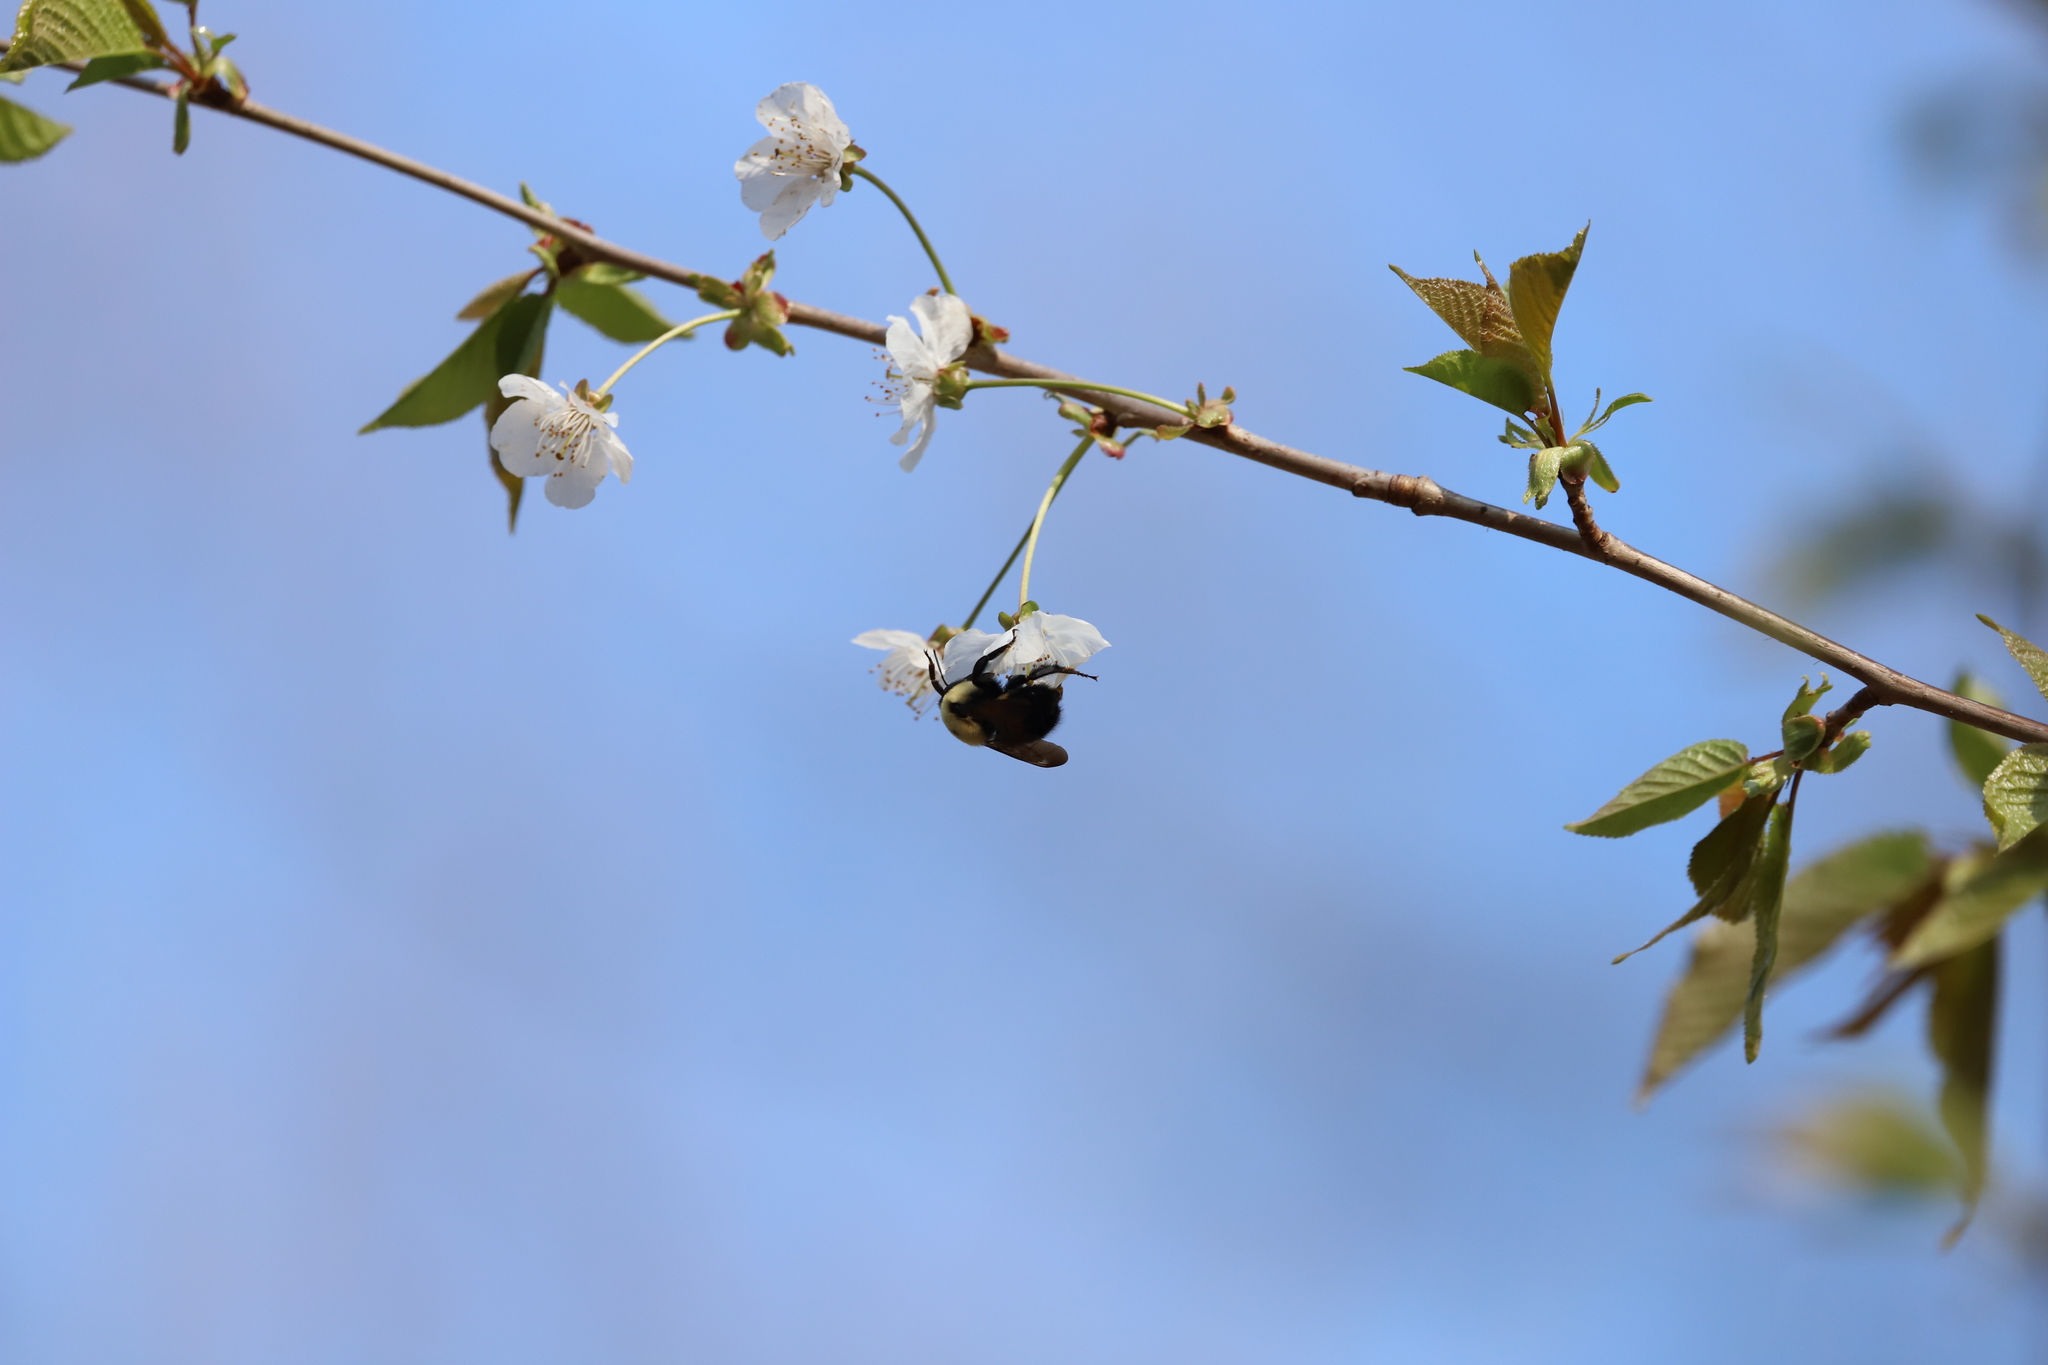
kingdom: Animalia
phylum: Arthropoda
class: Insecta
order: Hymenoptera
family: Apidae
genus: Bombus
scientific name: Bombus griseocollis
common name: Brown-belted bumble bee
